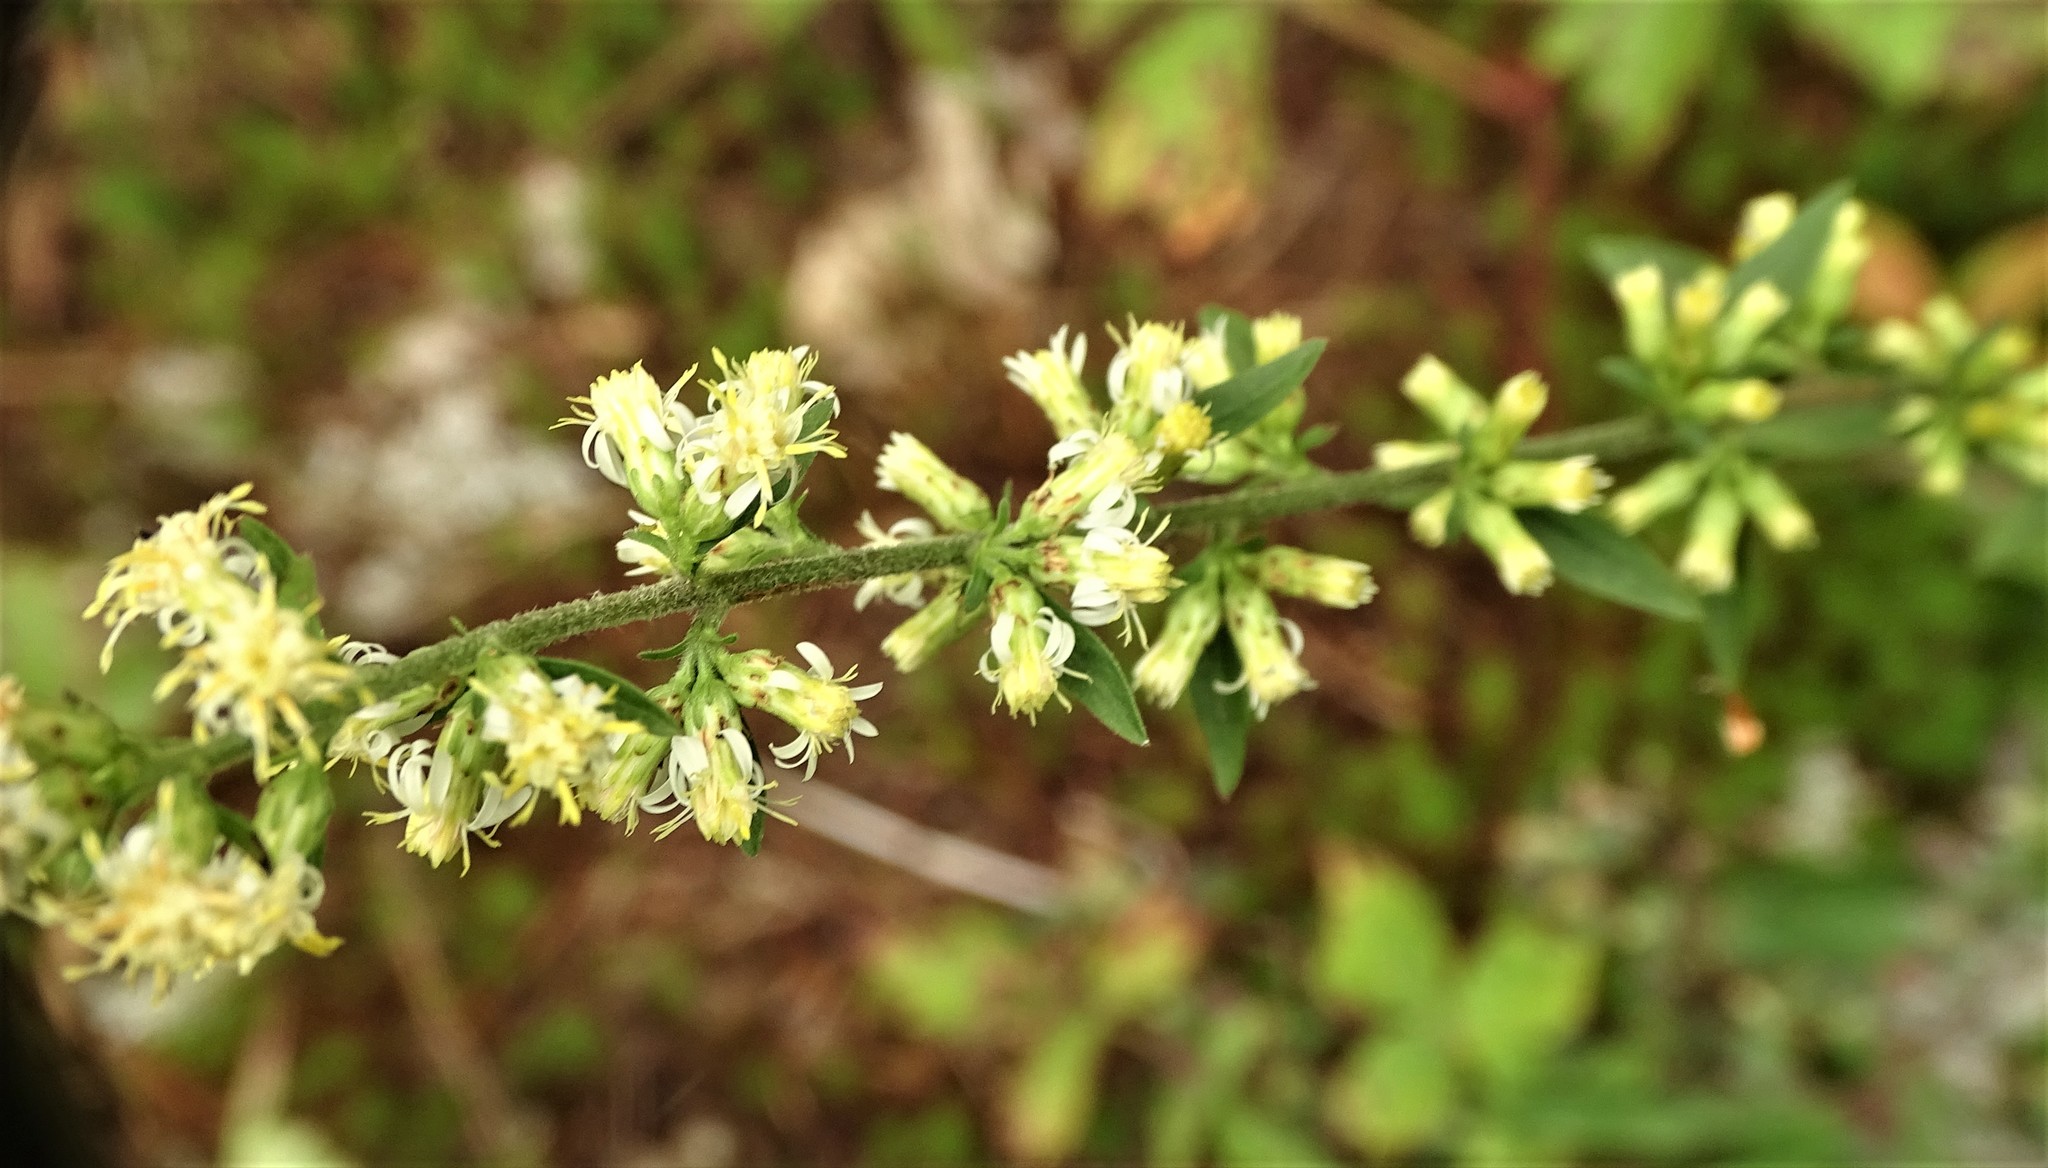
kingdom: Plantae
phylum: Tracheophyta
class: Magnoliopsida
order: Asterales
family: Asteraceae
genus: Solidago
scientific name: Solidago bicolor
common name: Silverrod
